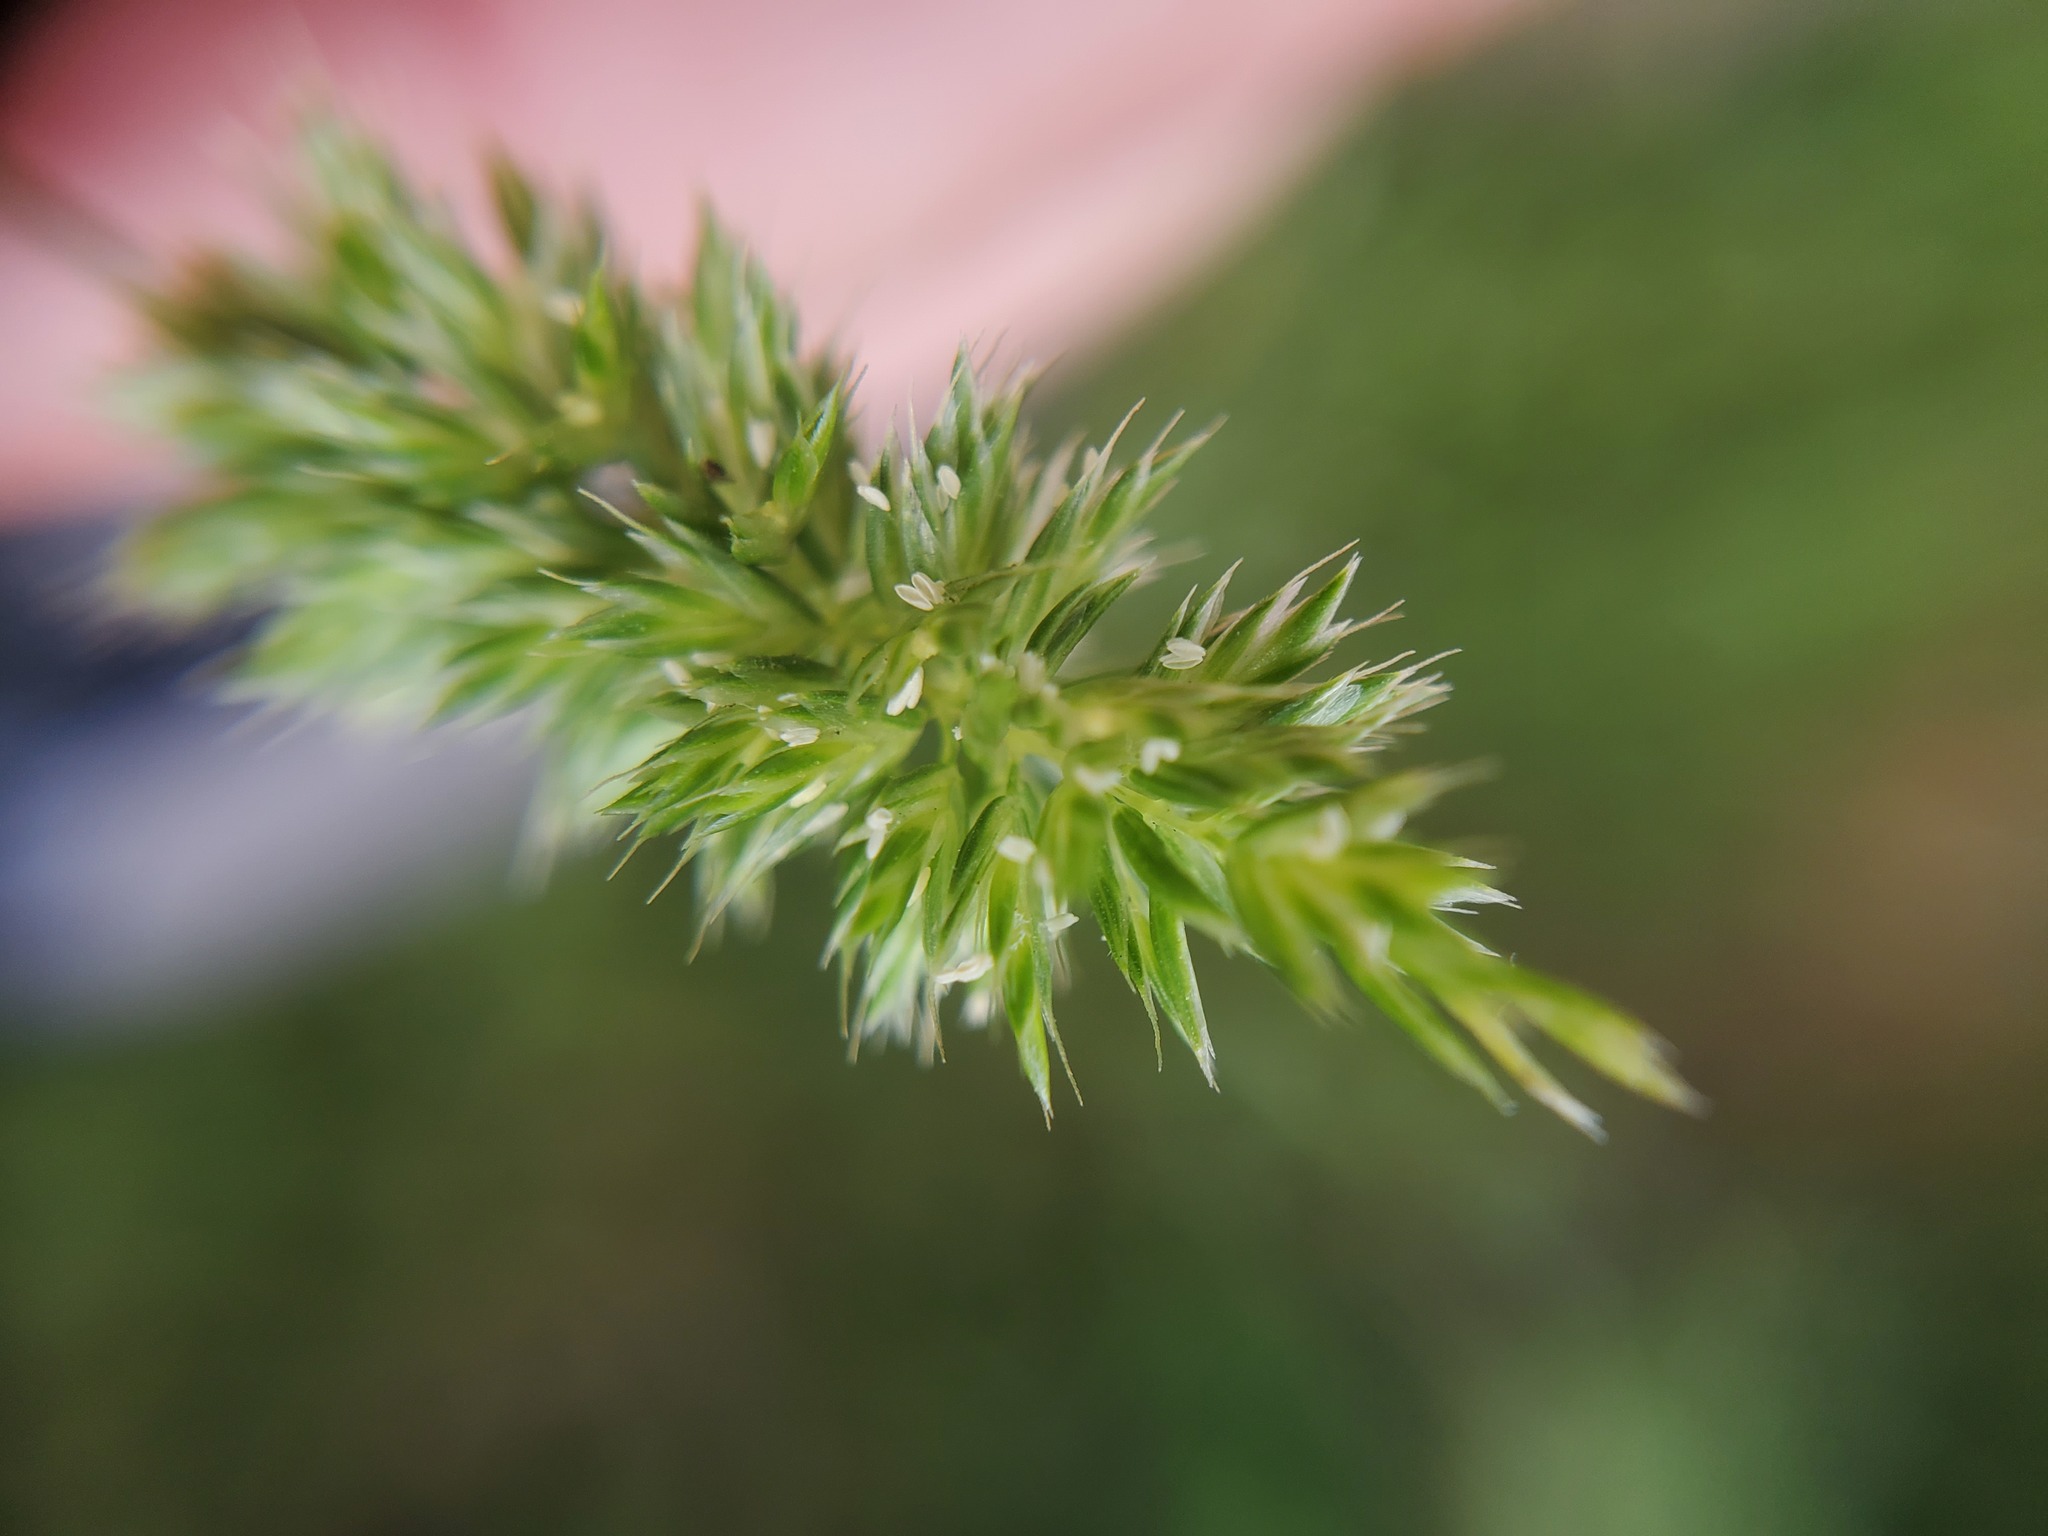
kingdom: Plantae
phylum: Tracheophyta
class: Liliopsida
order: Poales
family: Poaceae
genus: Rostraria
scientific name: Rostraria cristata
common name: Mediterranean hair-grass
